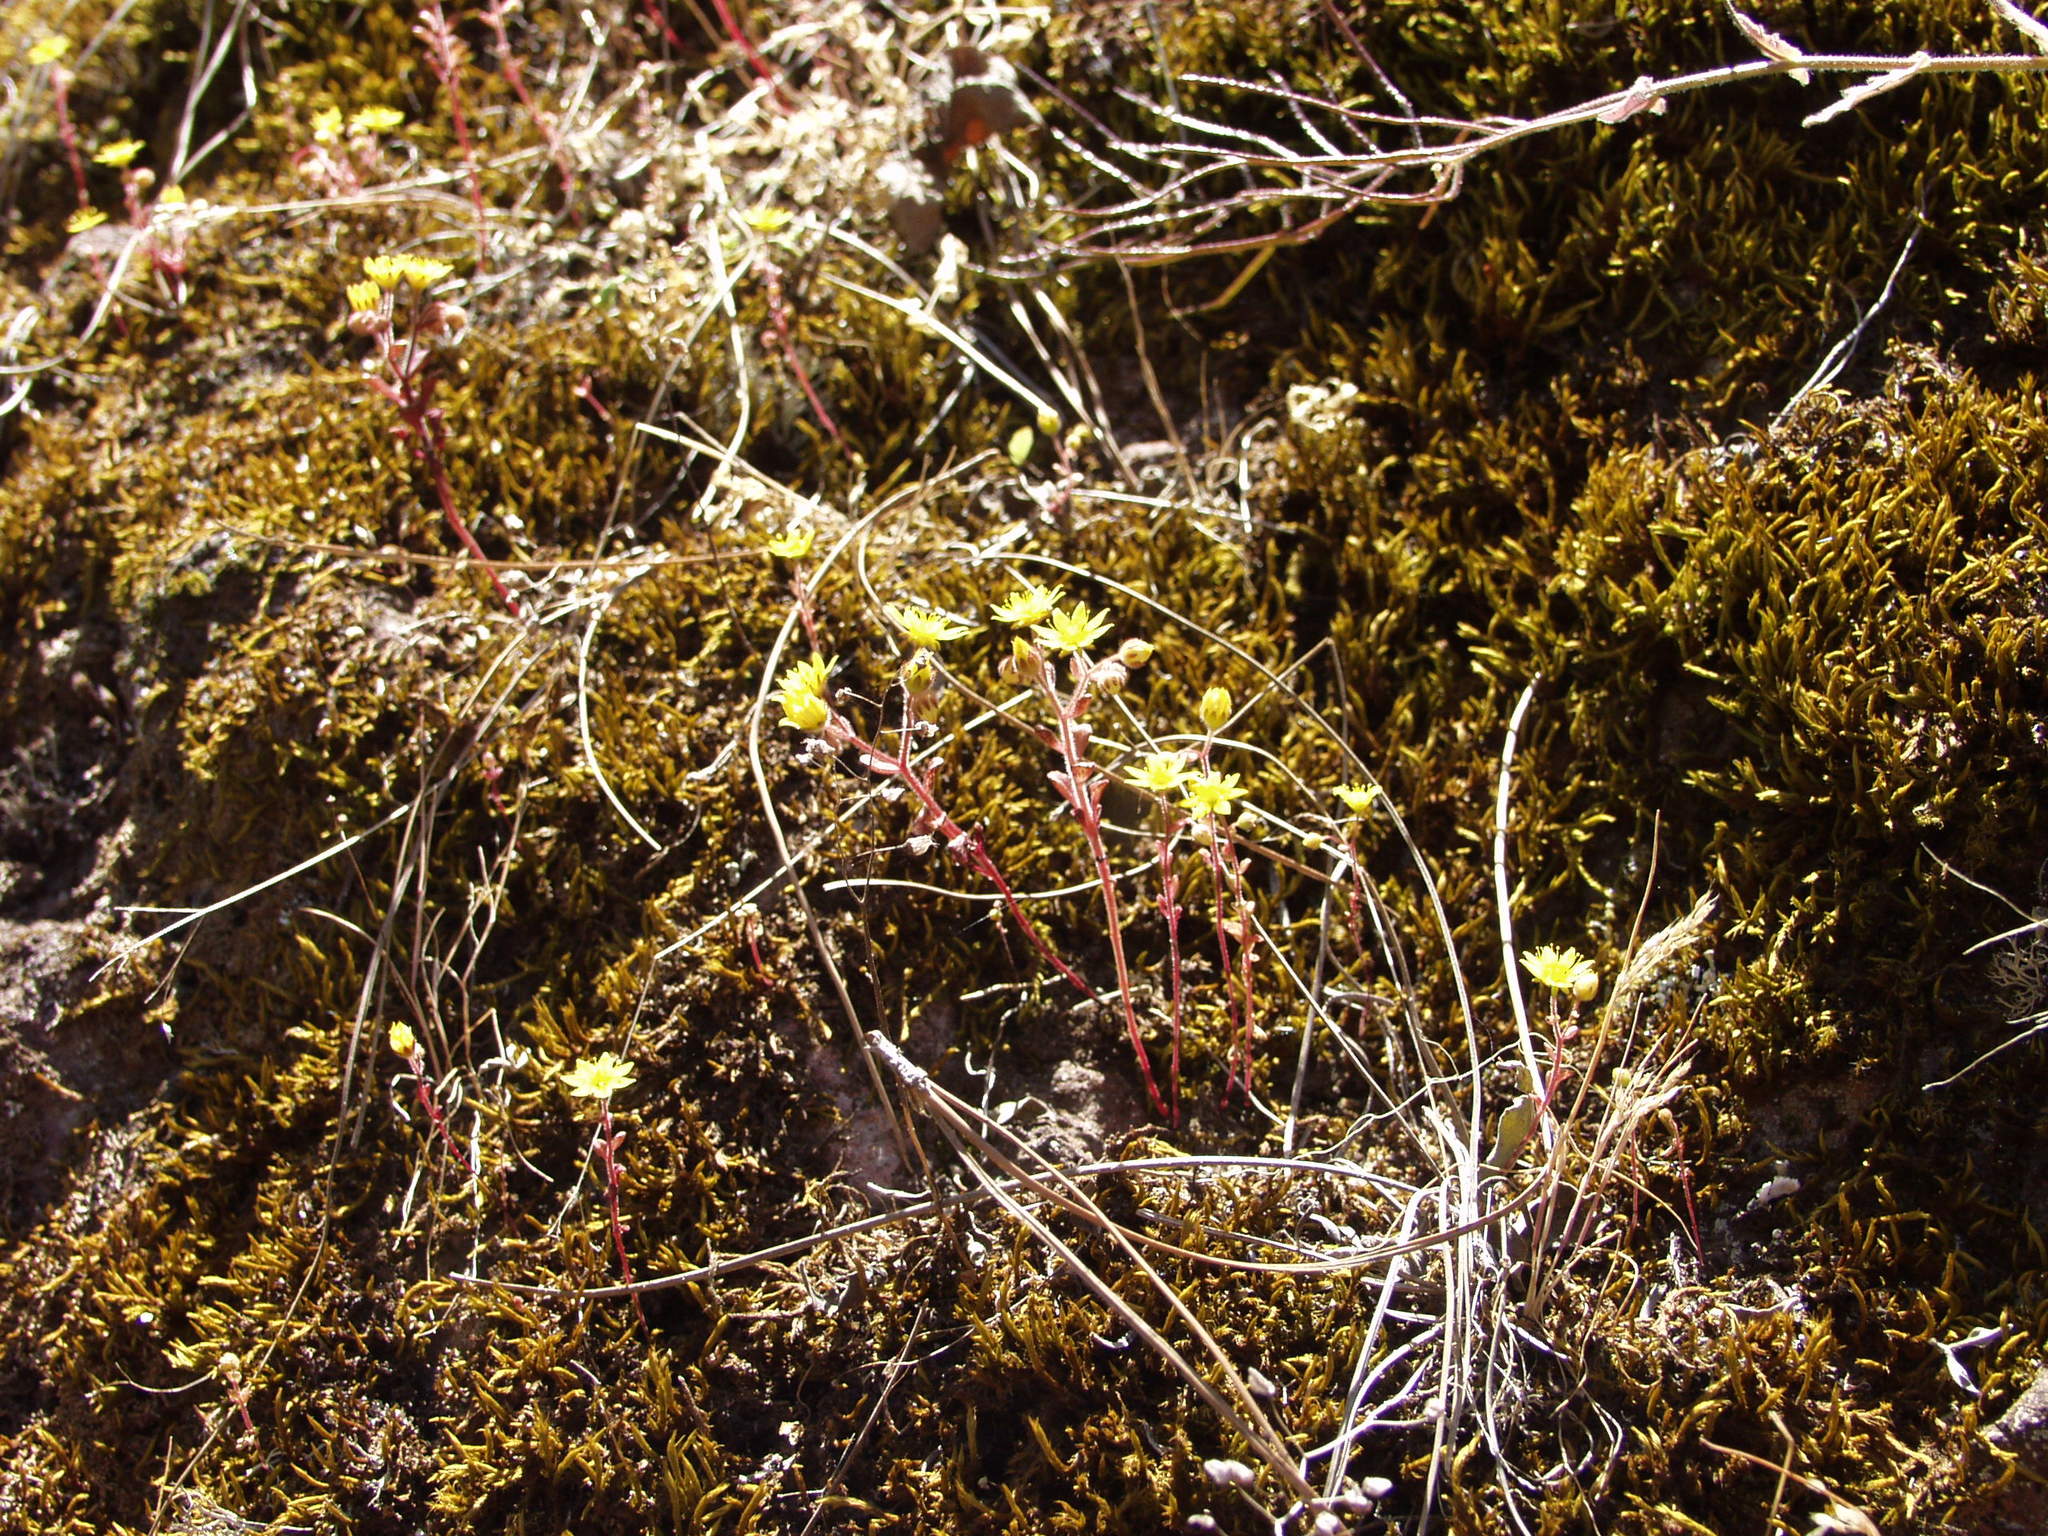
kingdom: Plantae
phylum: Tracheophyta
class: Magnoliopsida
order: Saxifragales
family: Crassulaceae
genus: Aichryson
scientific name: Aichryson parlatorei
